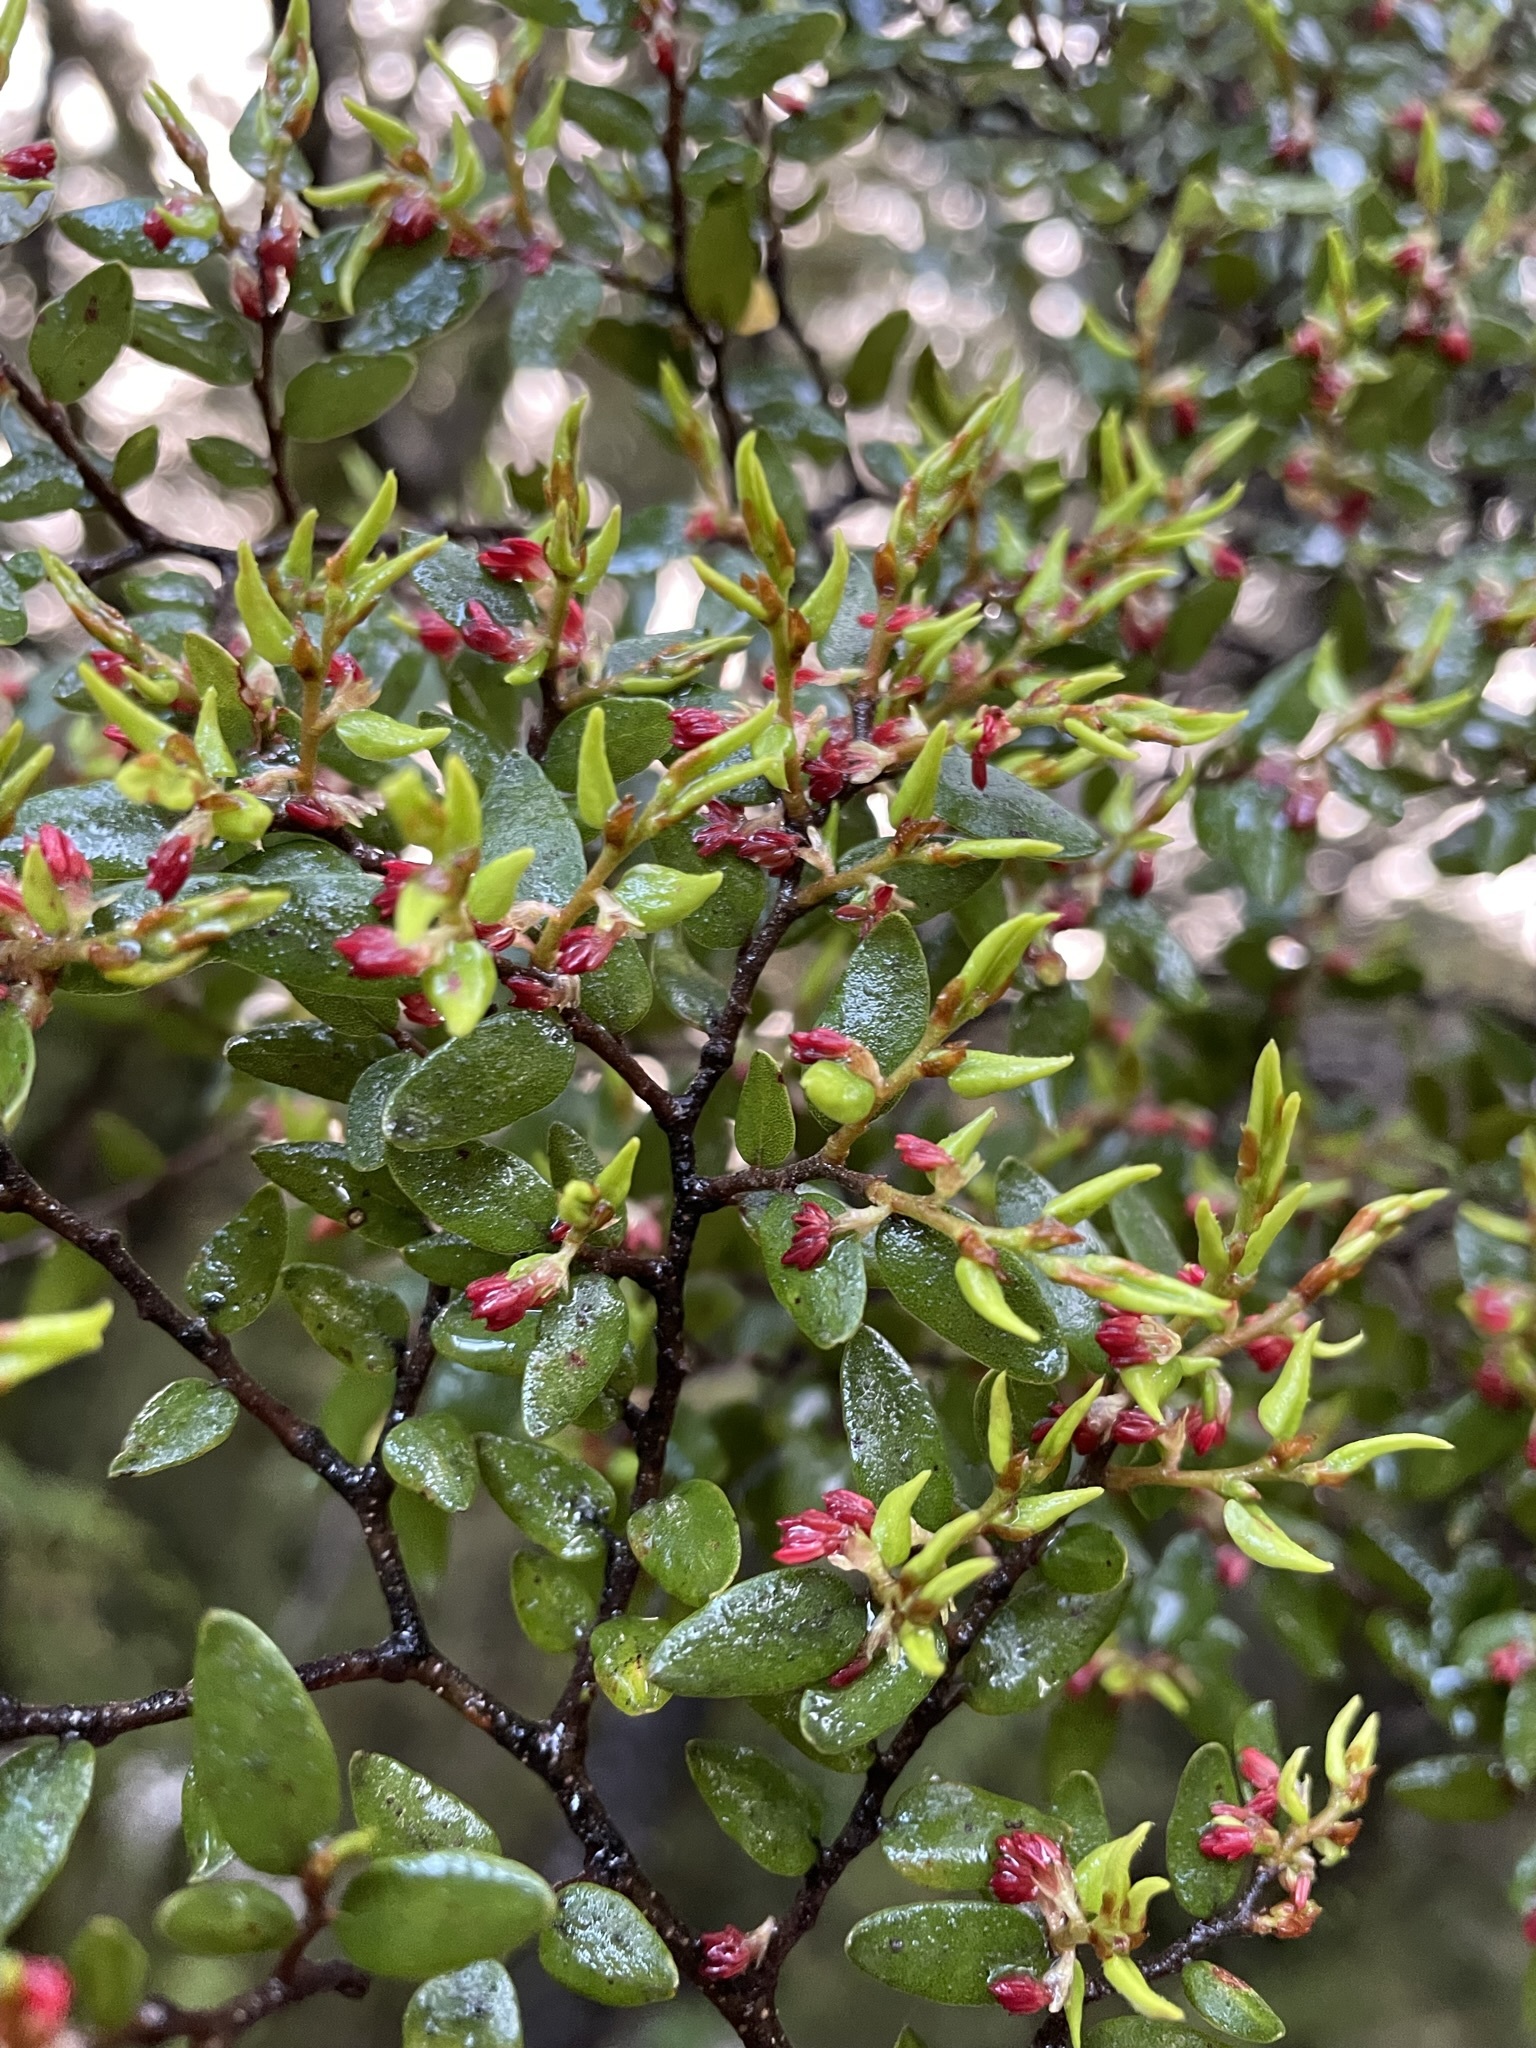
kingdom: Plantae
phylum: Tracheophyta
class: Magnoliopsida
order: Fagales
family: Nothofagaceae
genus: Nothofagus
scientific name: Nothofagus cliffortioides
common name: Mountain beech
